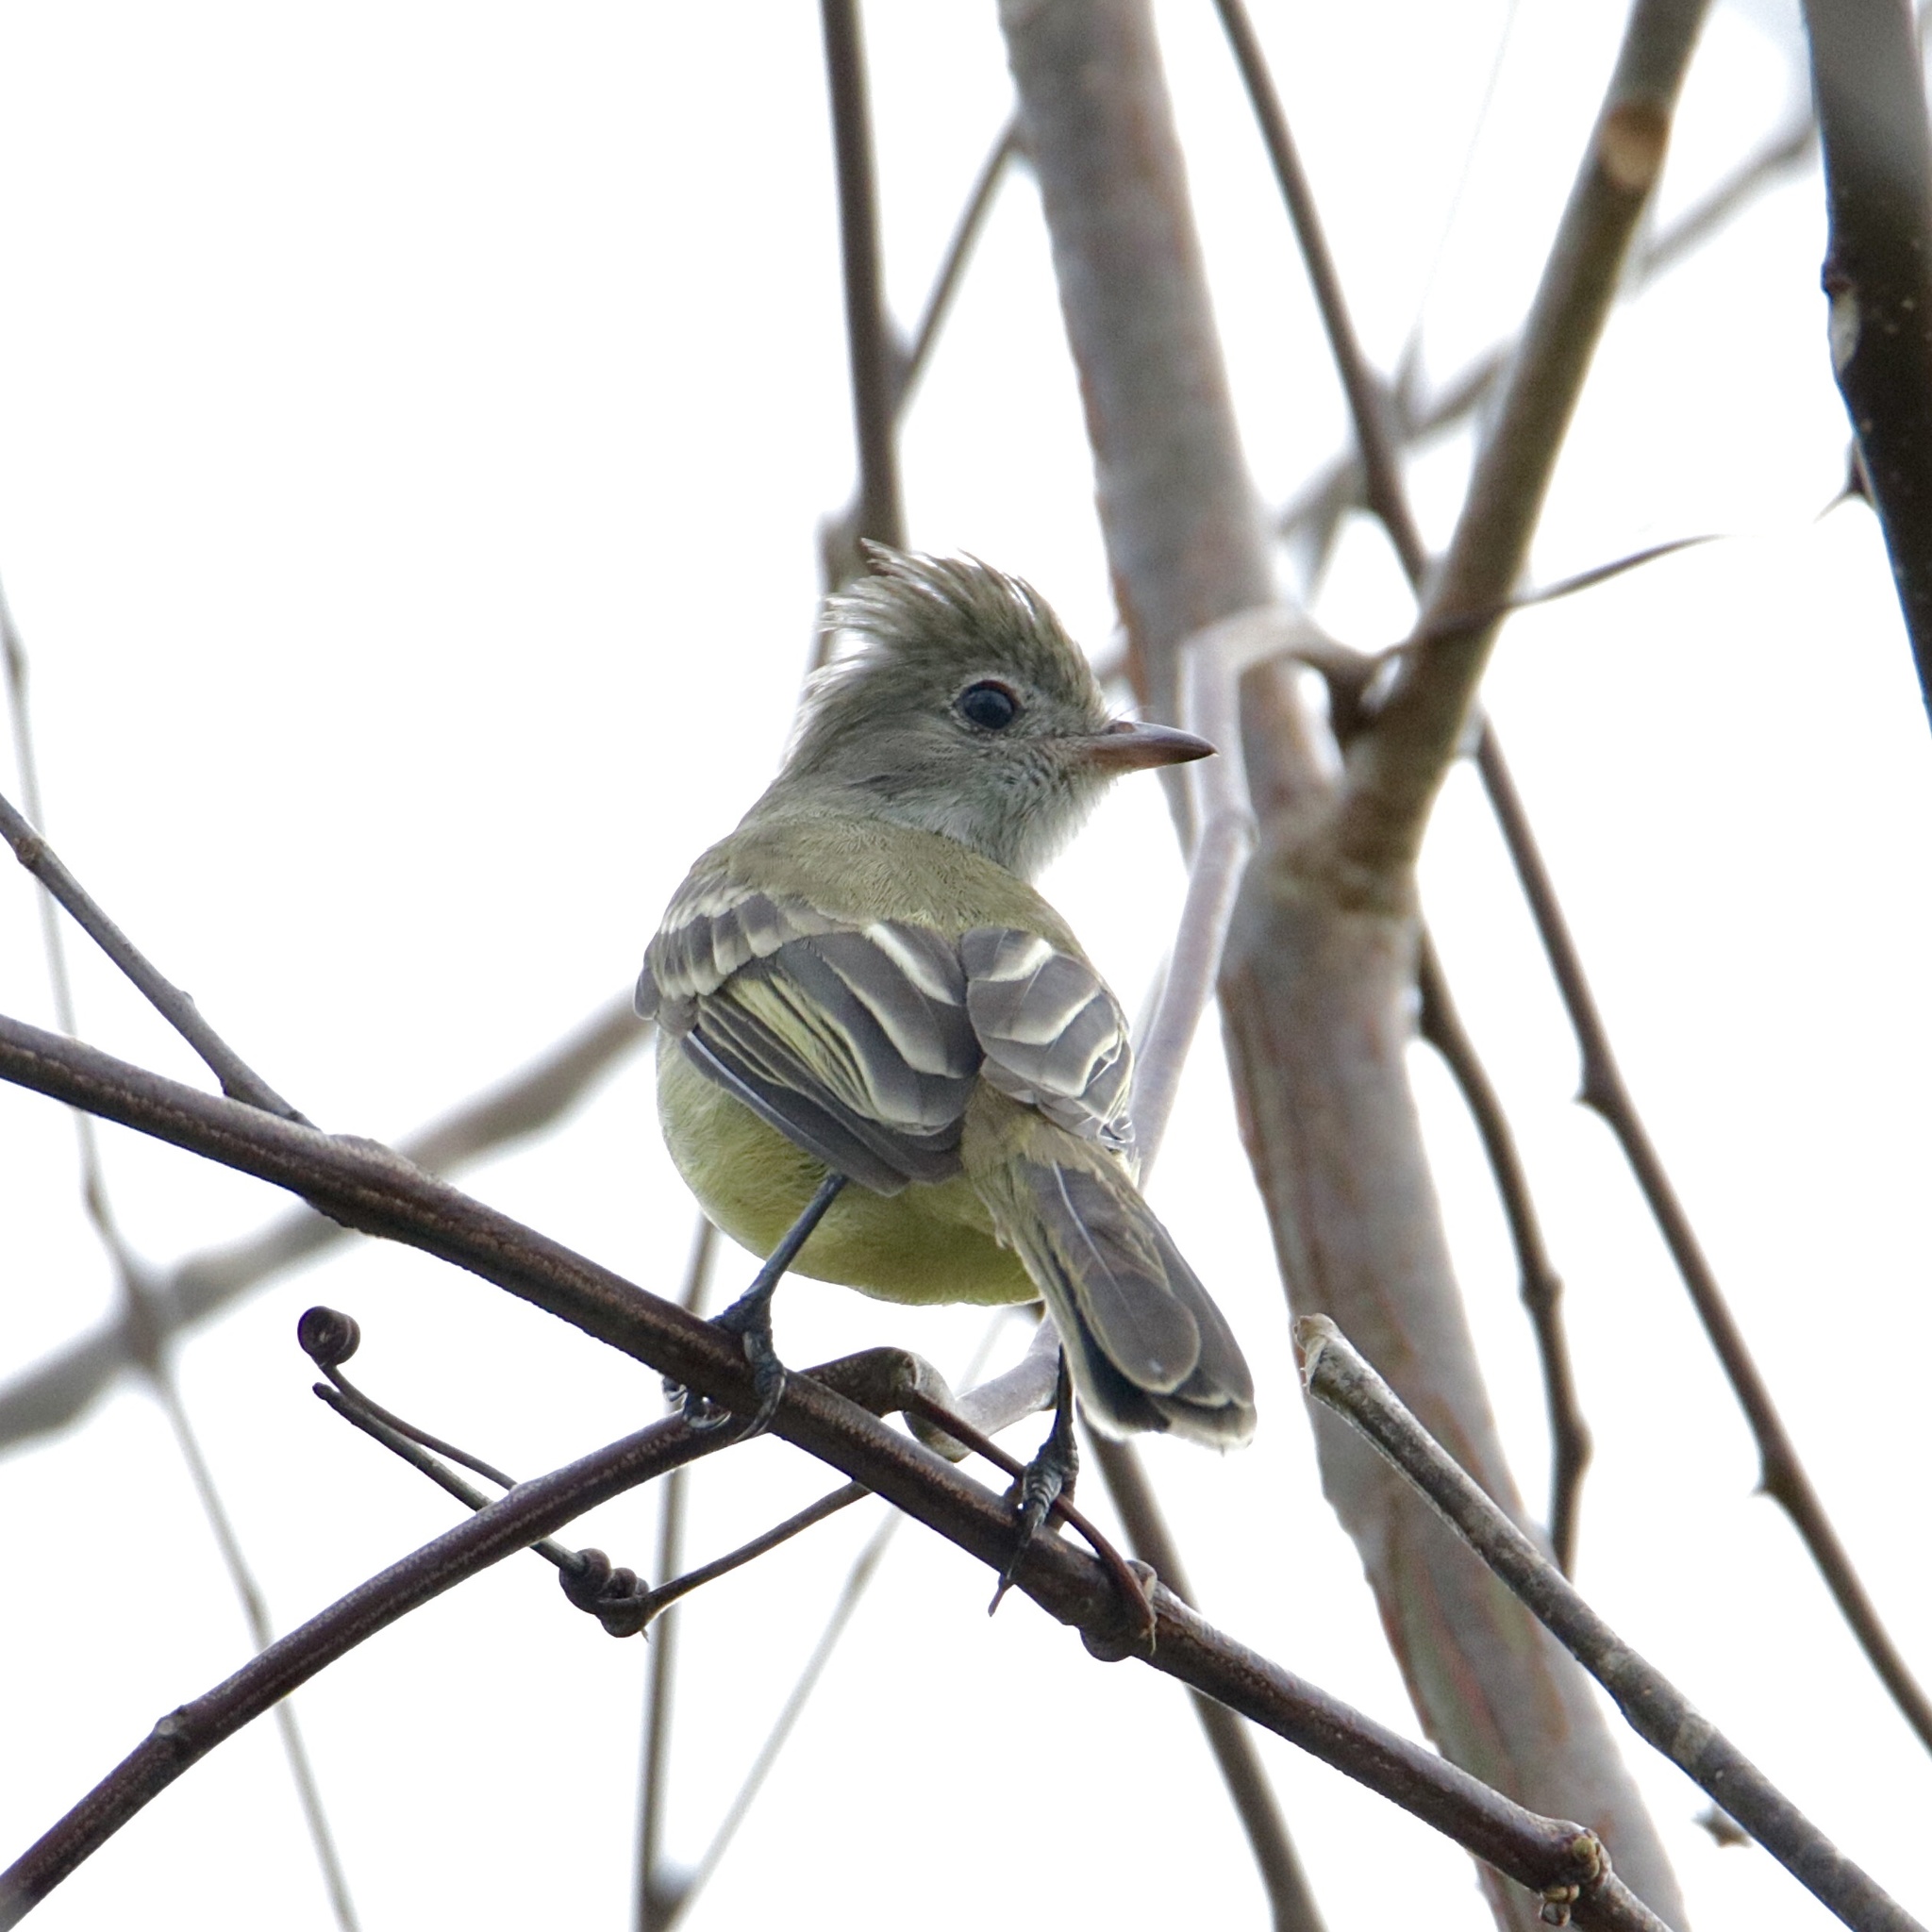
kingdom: Animalia
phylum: Chordata
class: Aves
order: Passeriformes
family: Tyrannidae
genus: Elaenia
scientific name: Elaenia flavogaster
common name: Yellow-bellied elaenia
